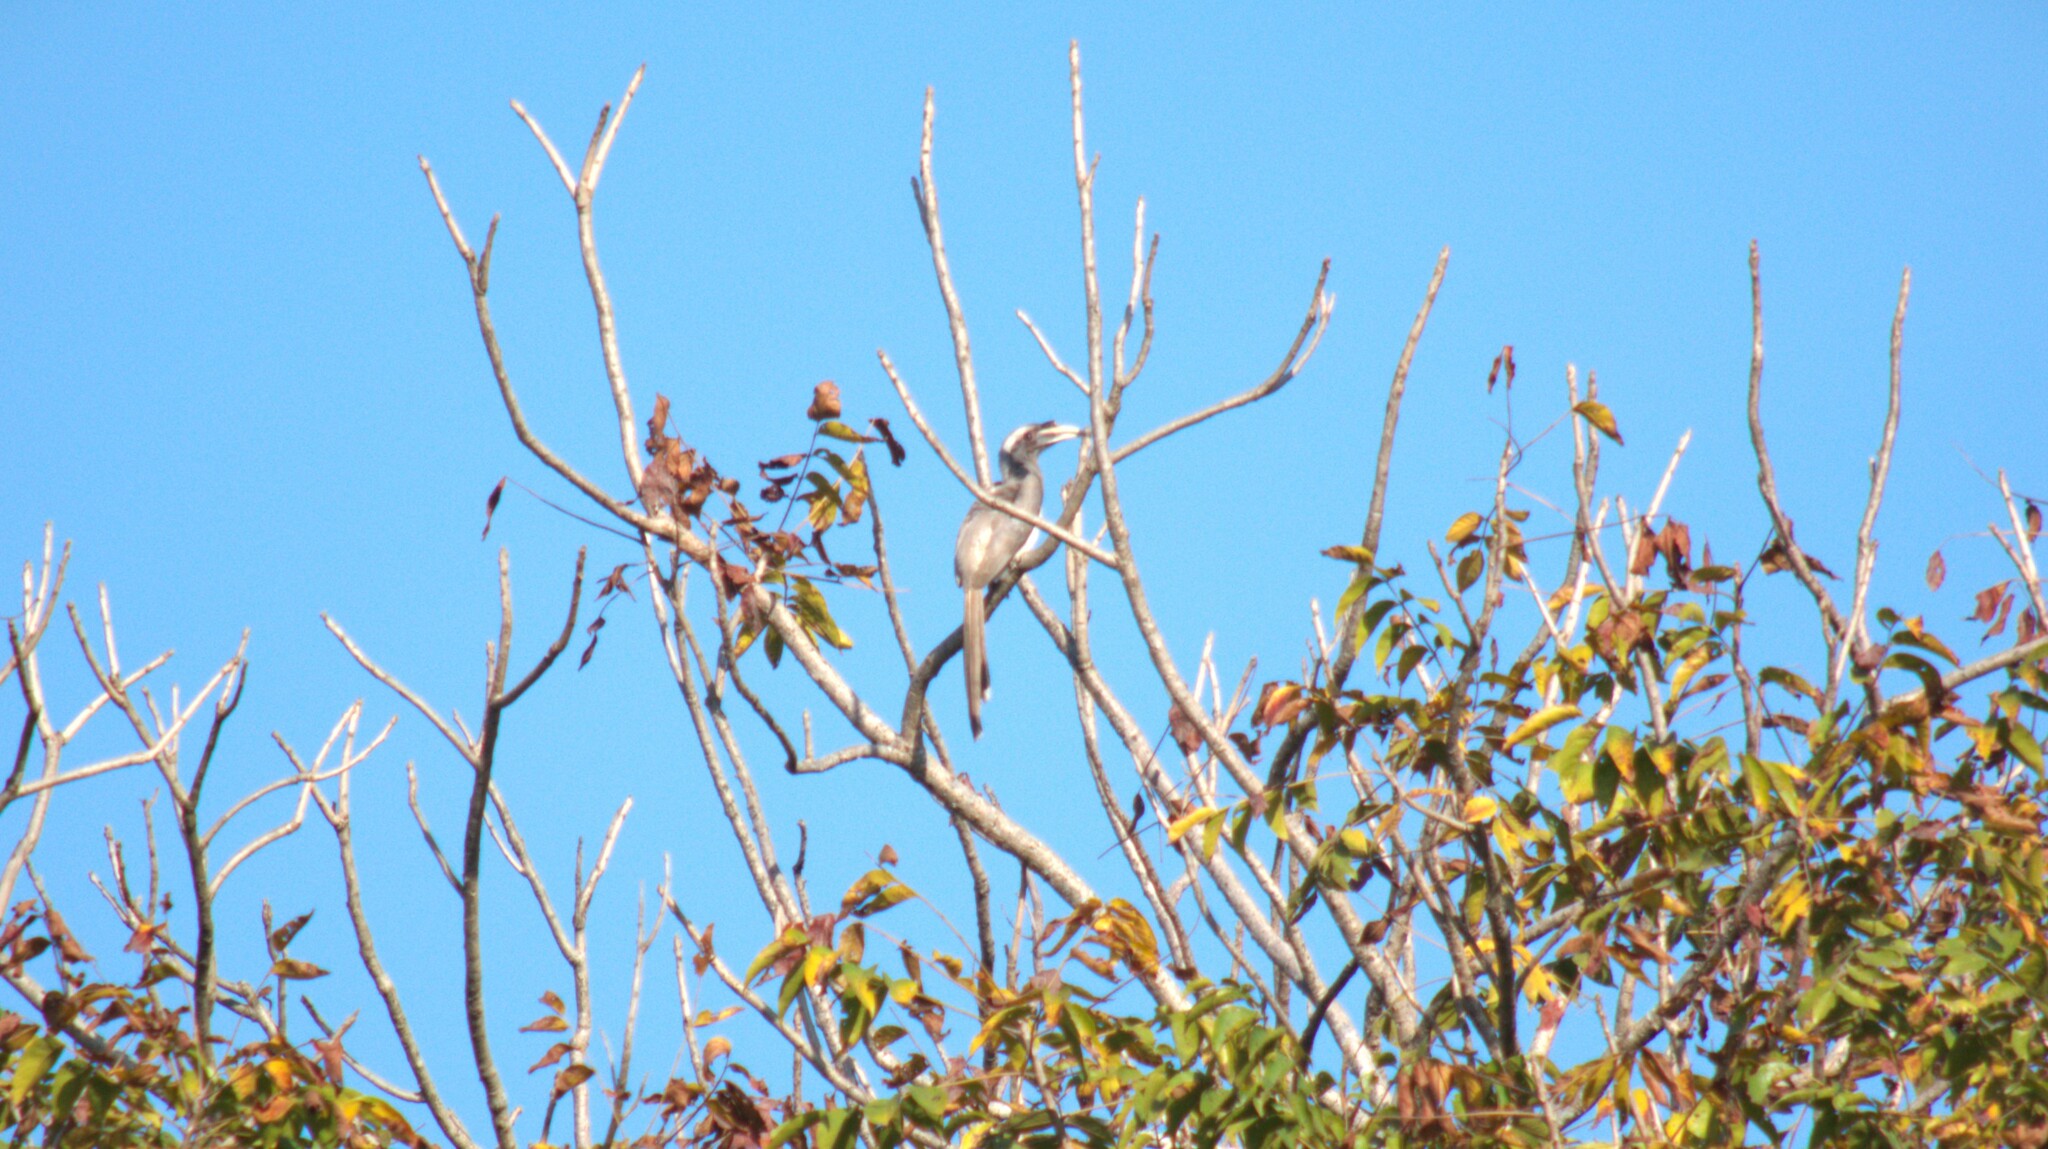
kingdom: Animalia
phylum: Chordata
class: Aves
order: Bucerotiformes
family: Bucerotidae
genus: Ocyceros
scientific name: Ocyceros birostris
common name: Indian grey hornbill
